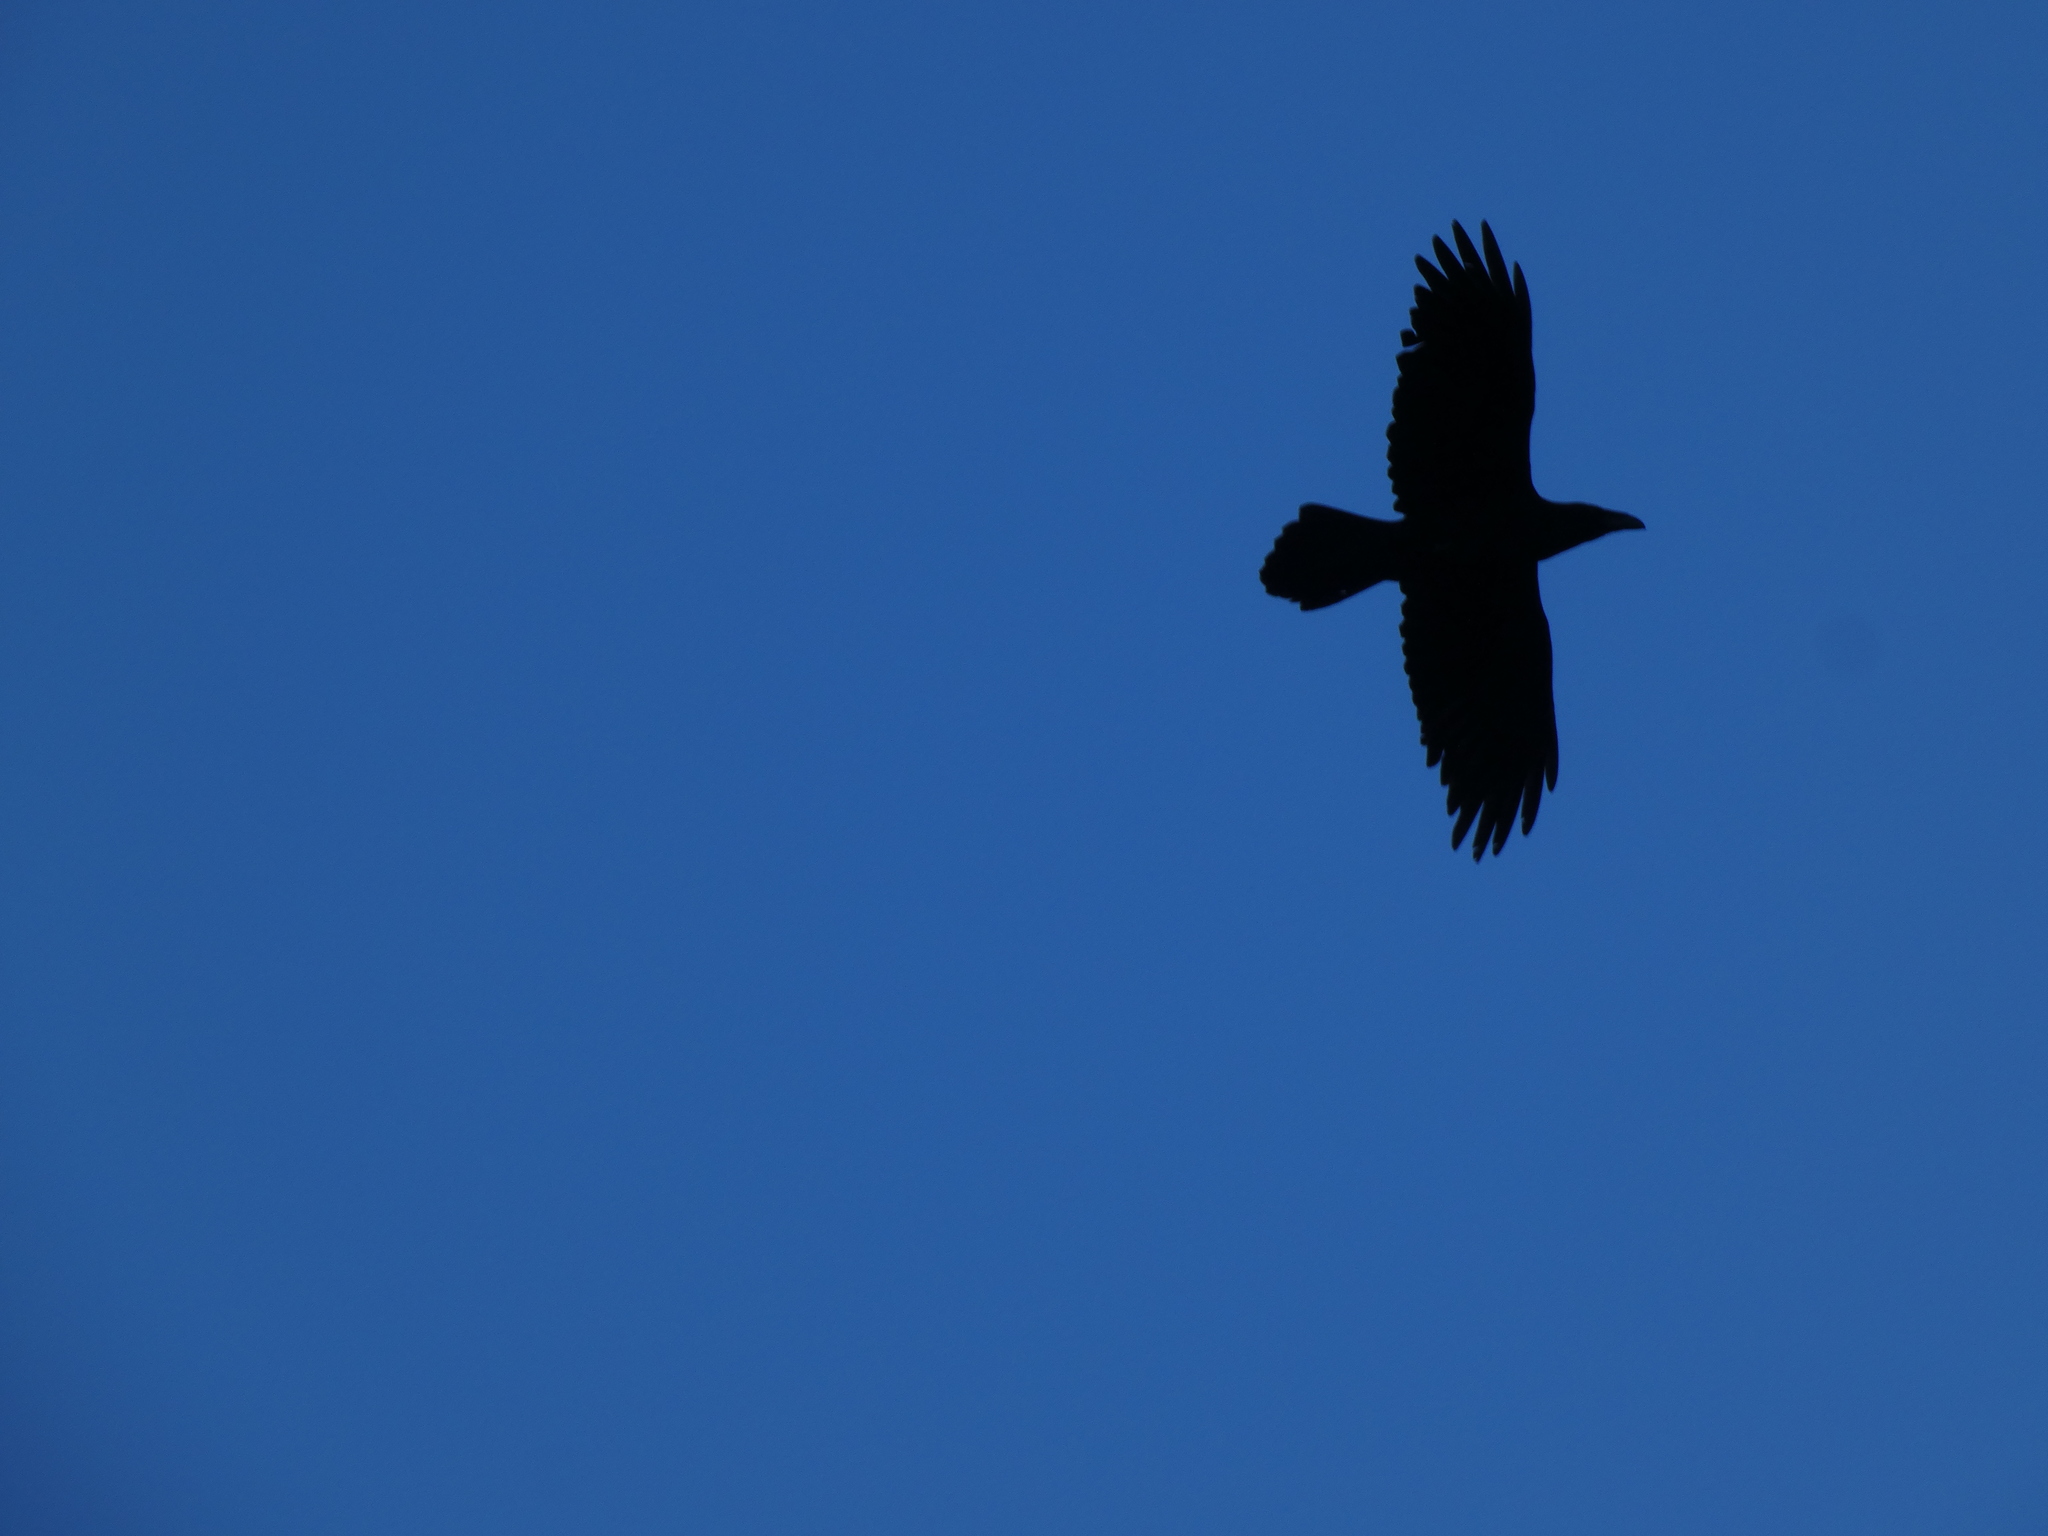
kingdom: Animalia
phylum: Chordata
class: Aves
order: Passeriformes
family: Corvidae
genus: Corvus
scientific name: Corvus corax
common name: Common raven
